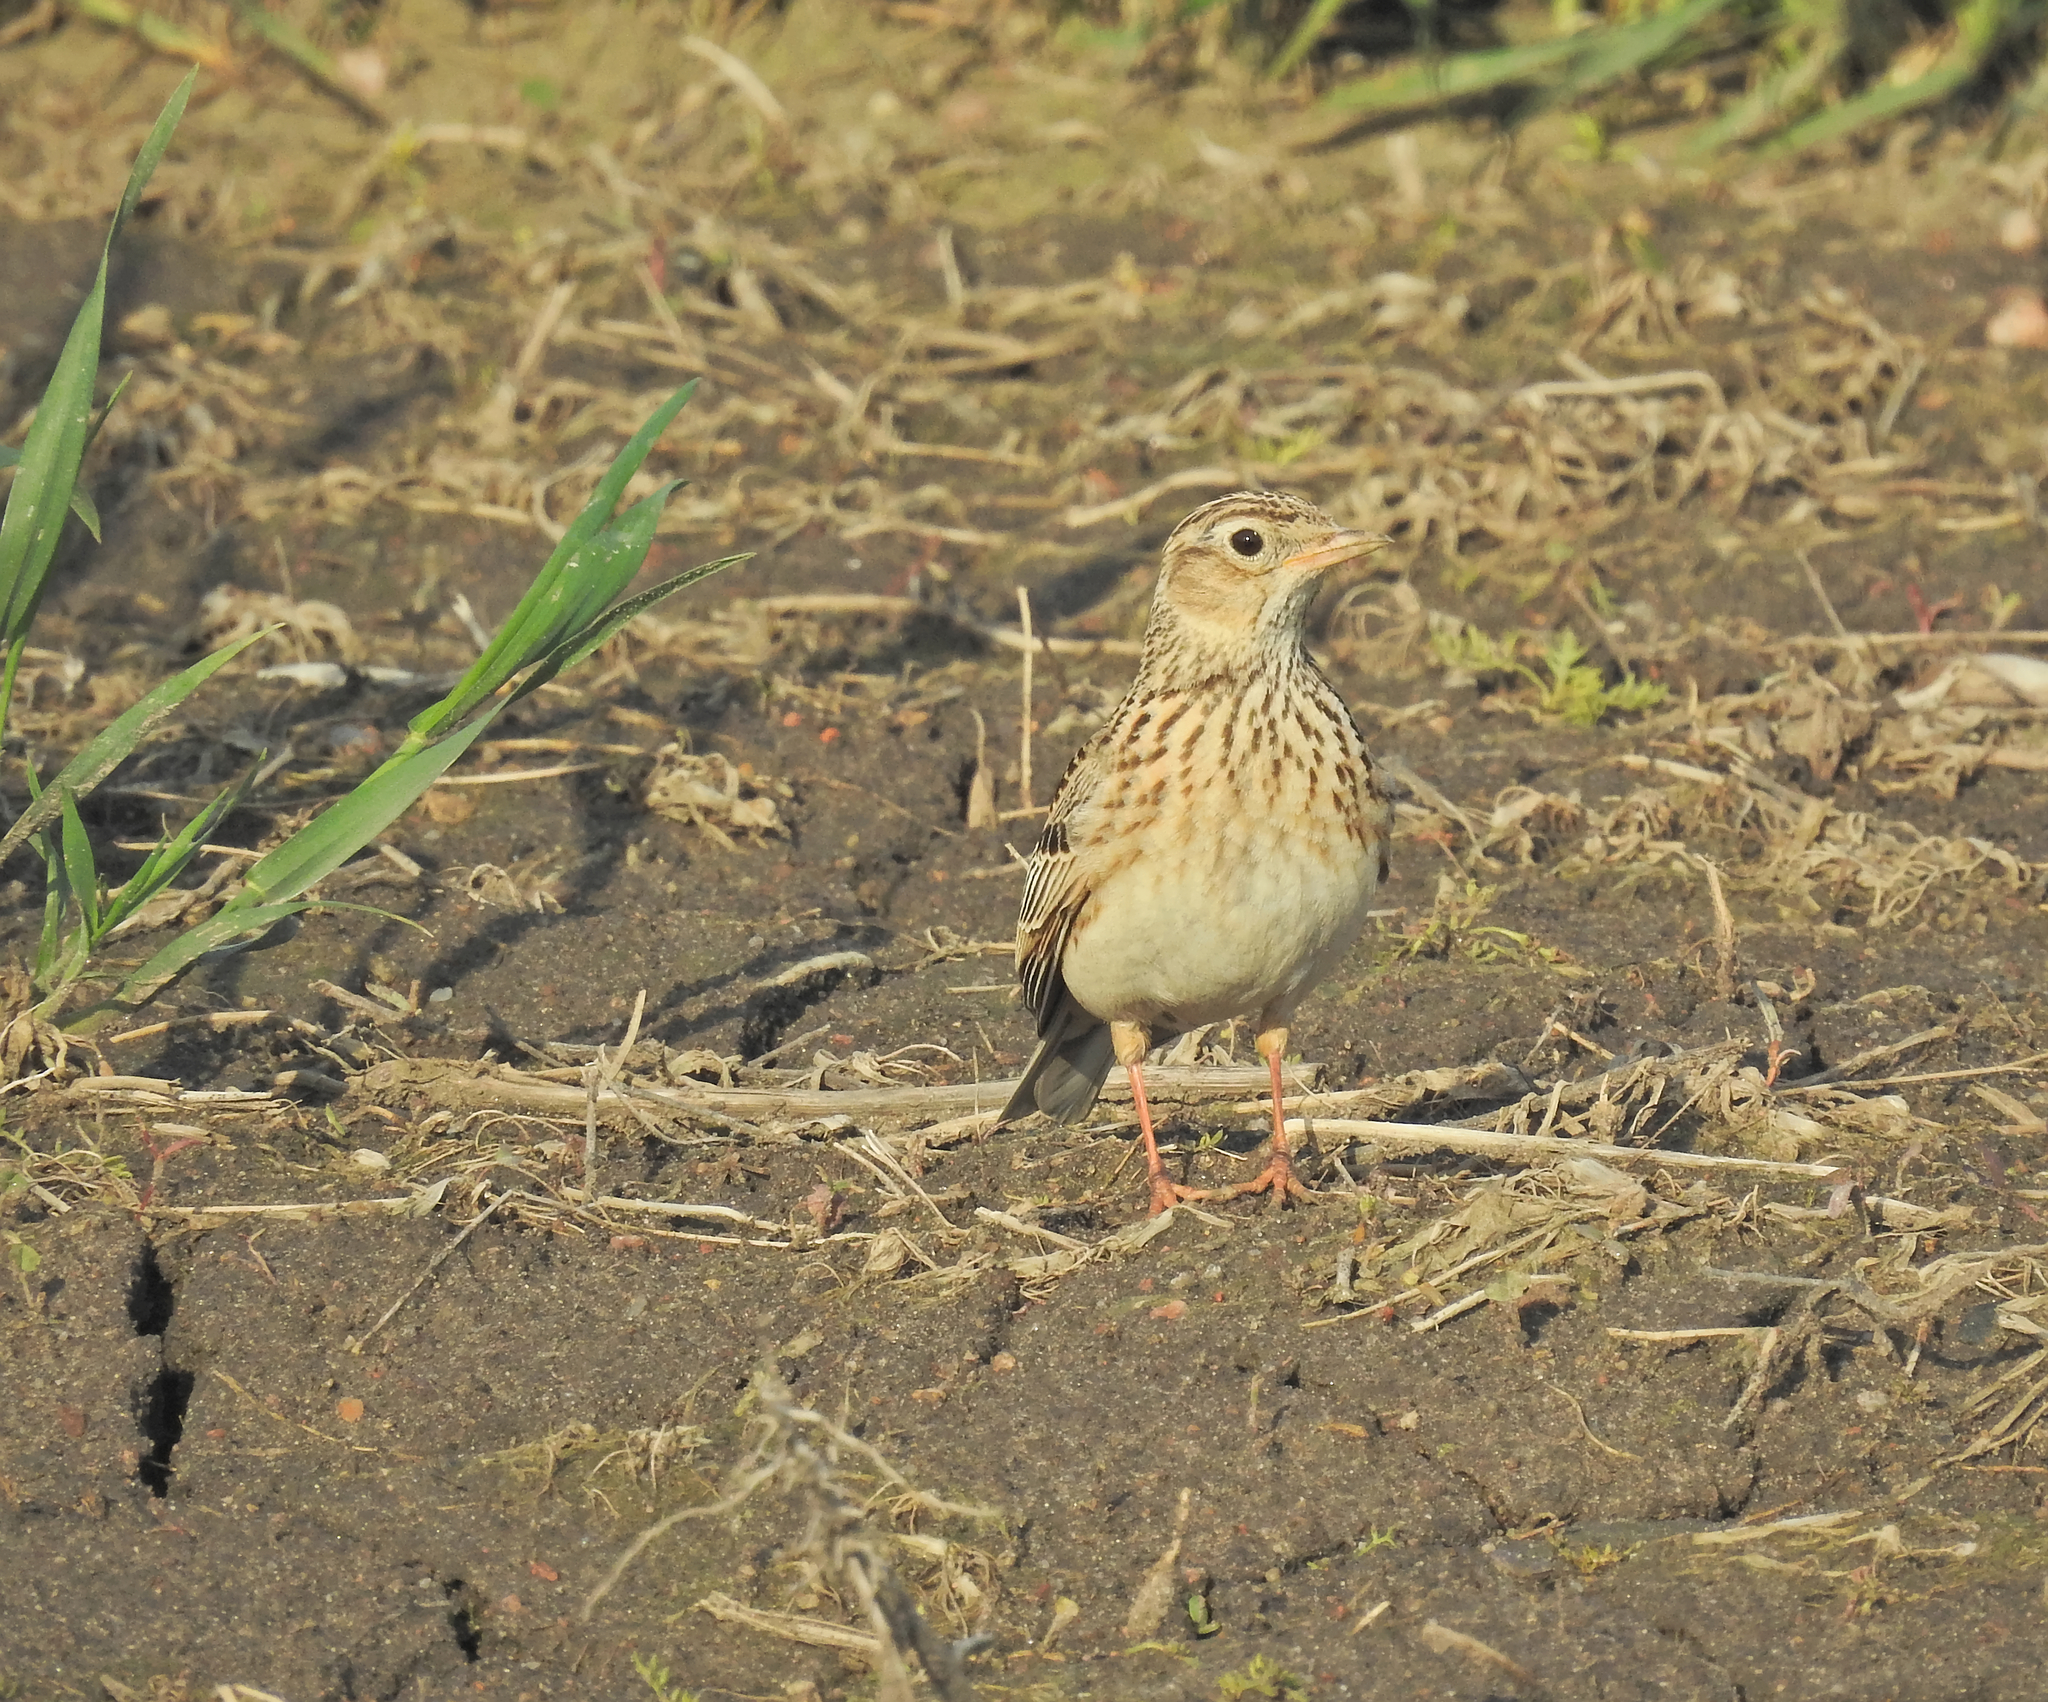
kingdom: Animalia
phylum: Chordata
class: Aves
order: Passeriformes
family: Alaudidae
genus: Alauda
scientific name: Alauda arvensis
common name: Eurasian skylark
